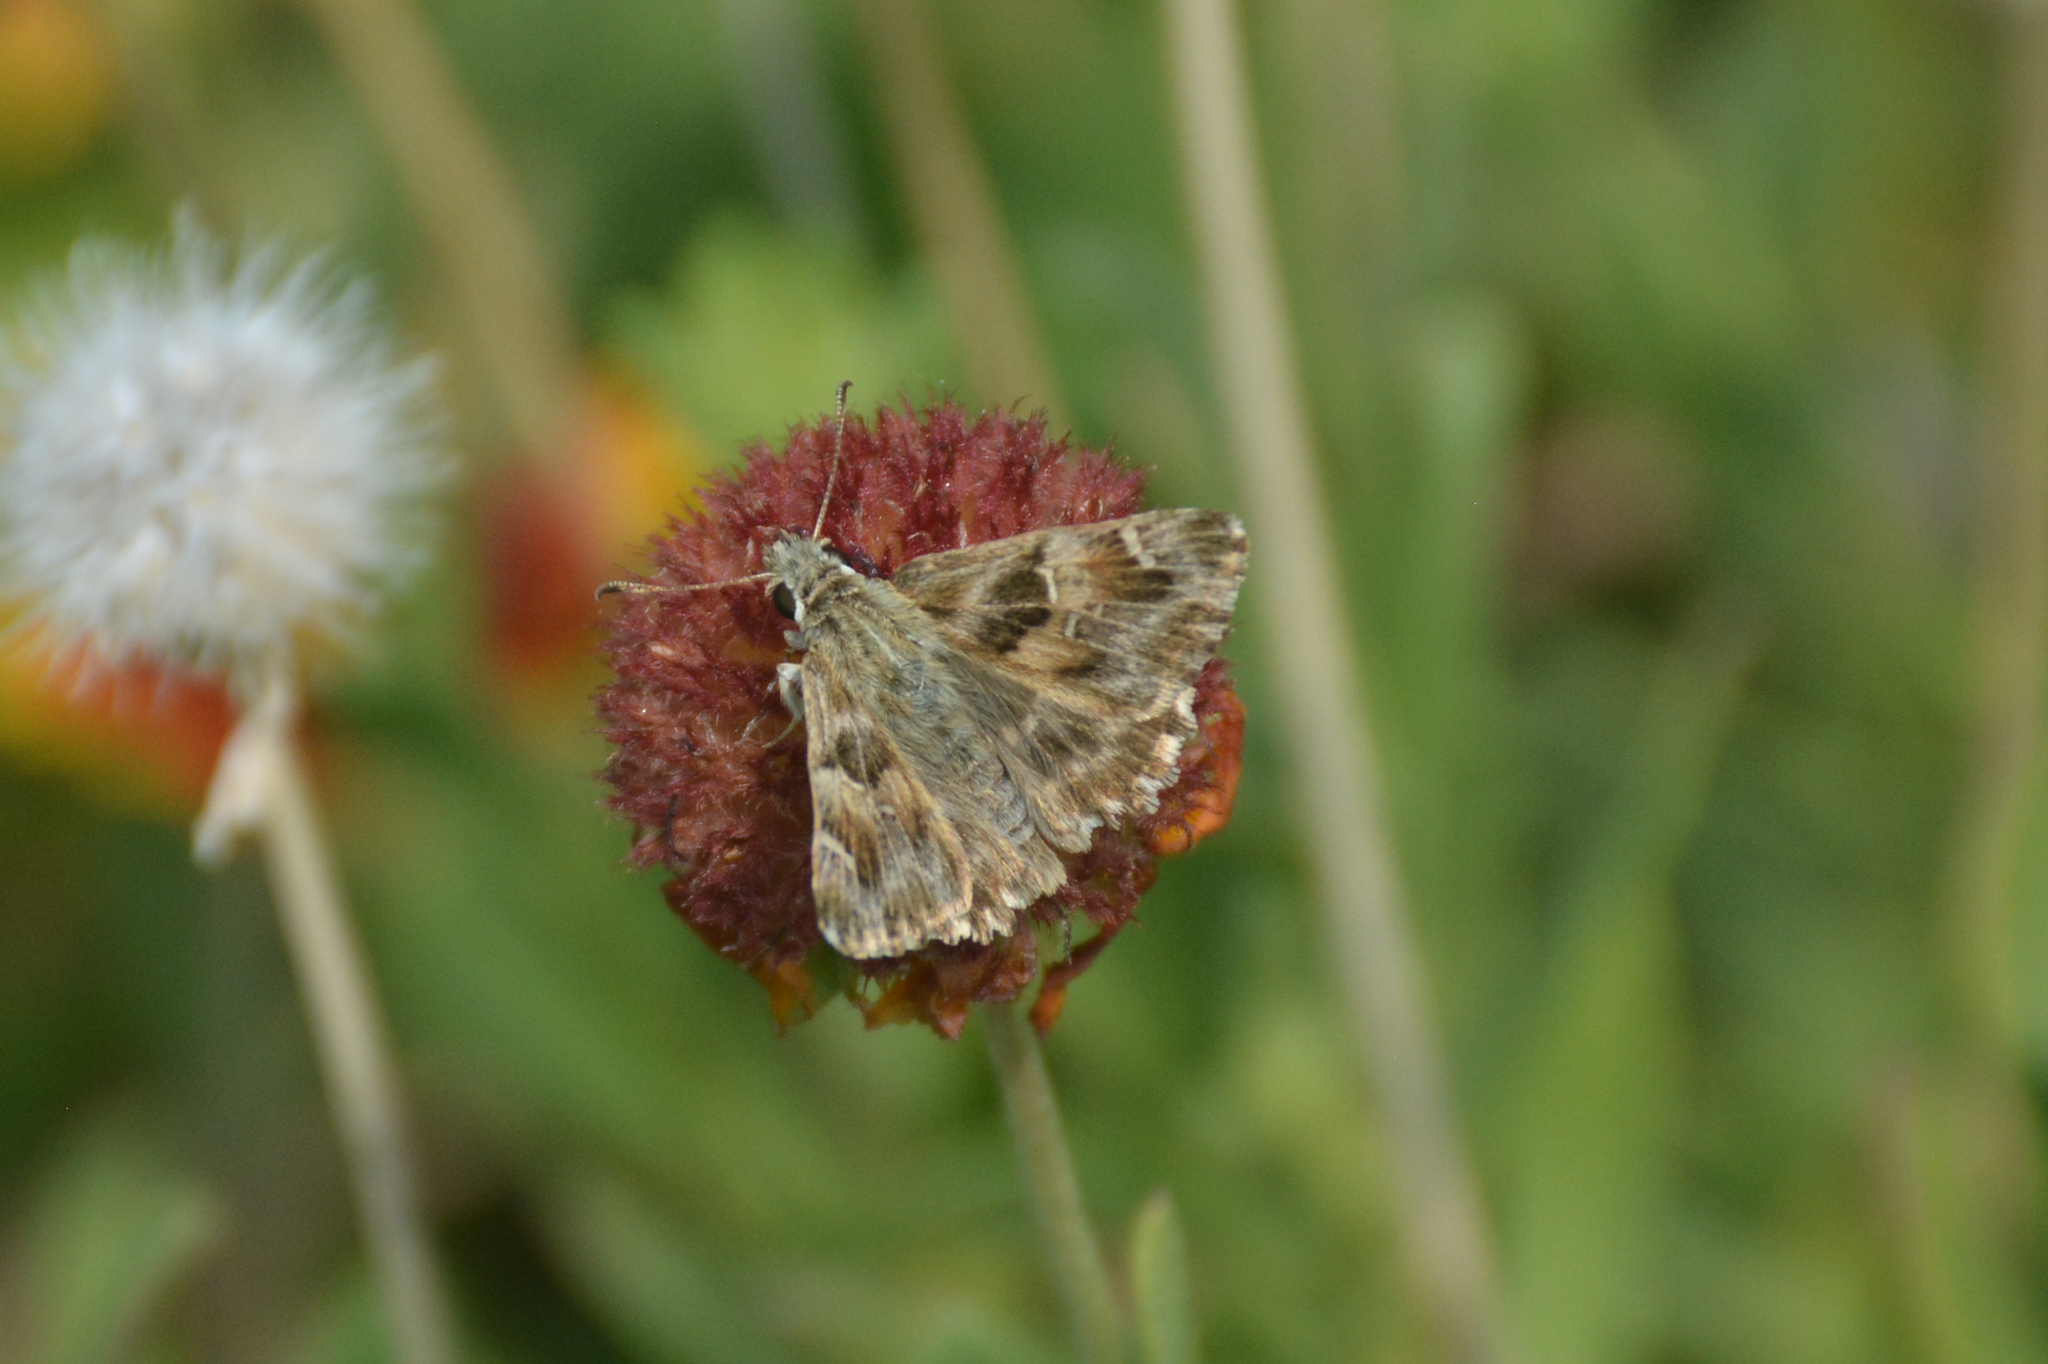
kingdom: Animalia
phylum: Arthropoda
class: Insecta
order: Lepidoptera
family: Hesperiidae
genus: Carcharodus
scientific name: Carcharodus alceae
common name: Mallow skipper
